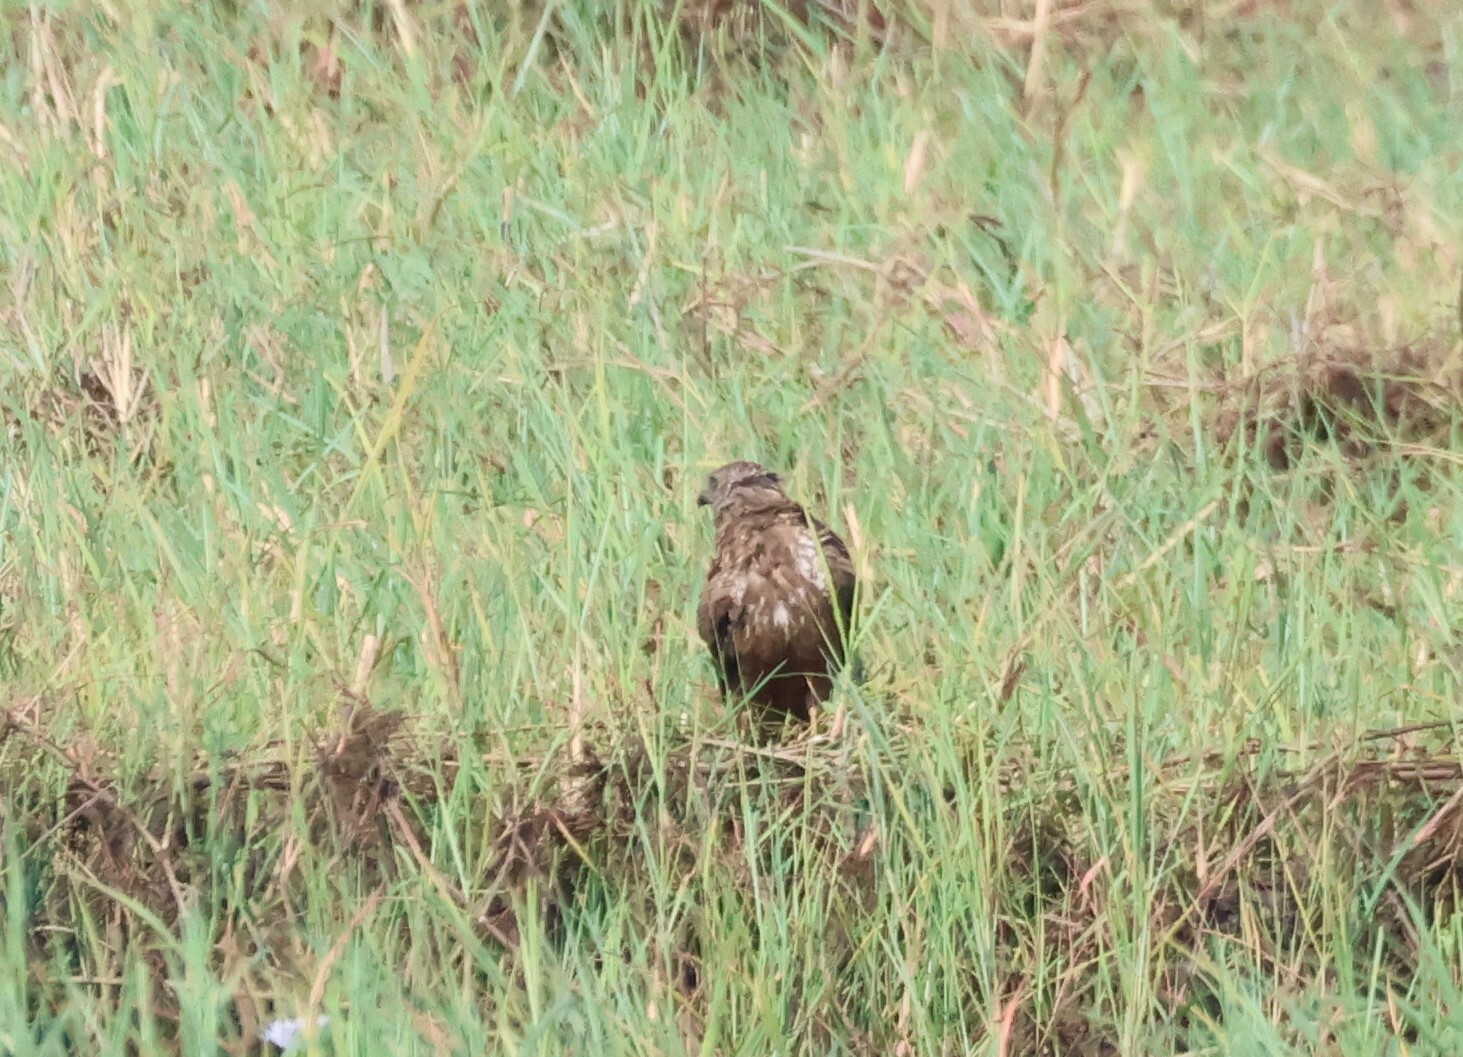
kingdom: Animalia
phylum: Chordata
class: Aves
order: Accipitriformes
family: Accipitridae
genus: Circus
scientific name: Circus ranivorus
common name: African marsh-harrier
